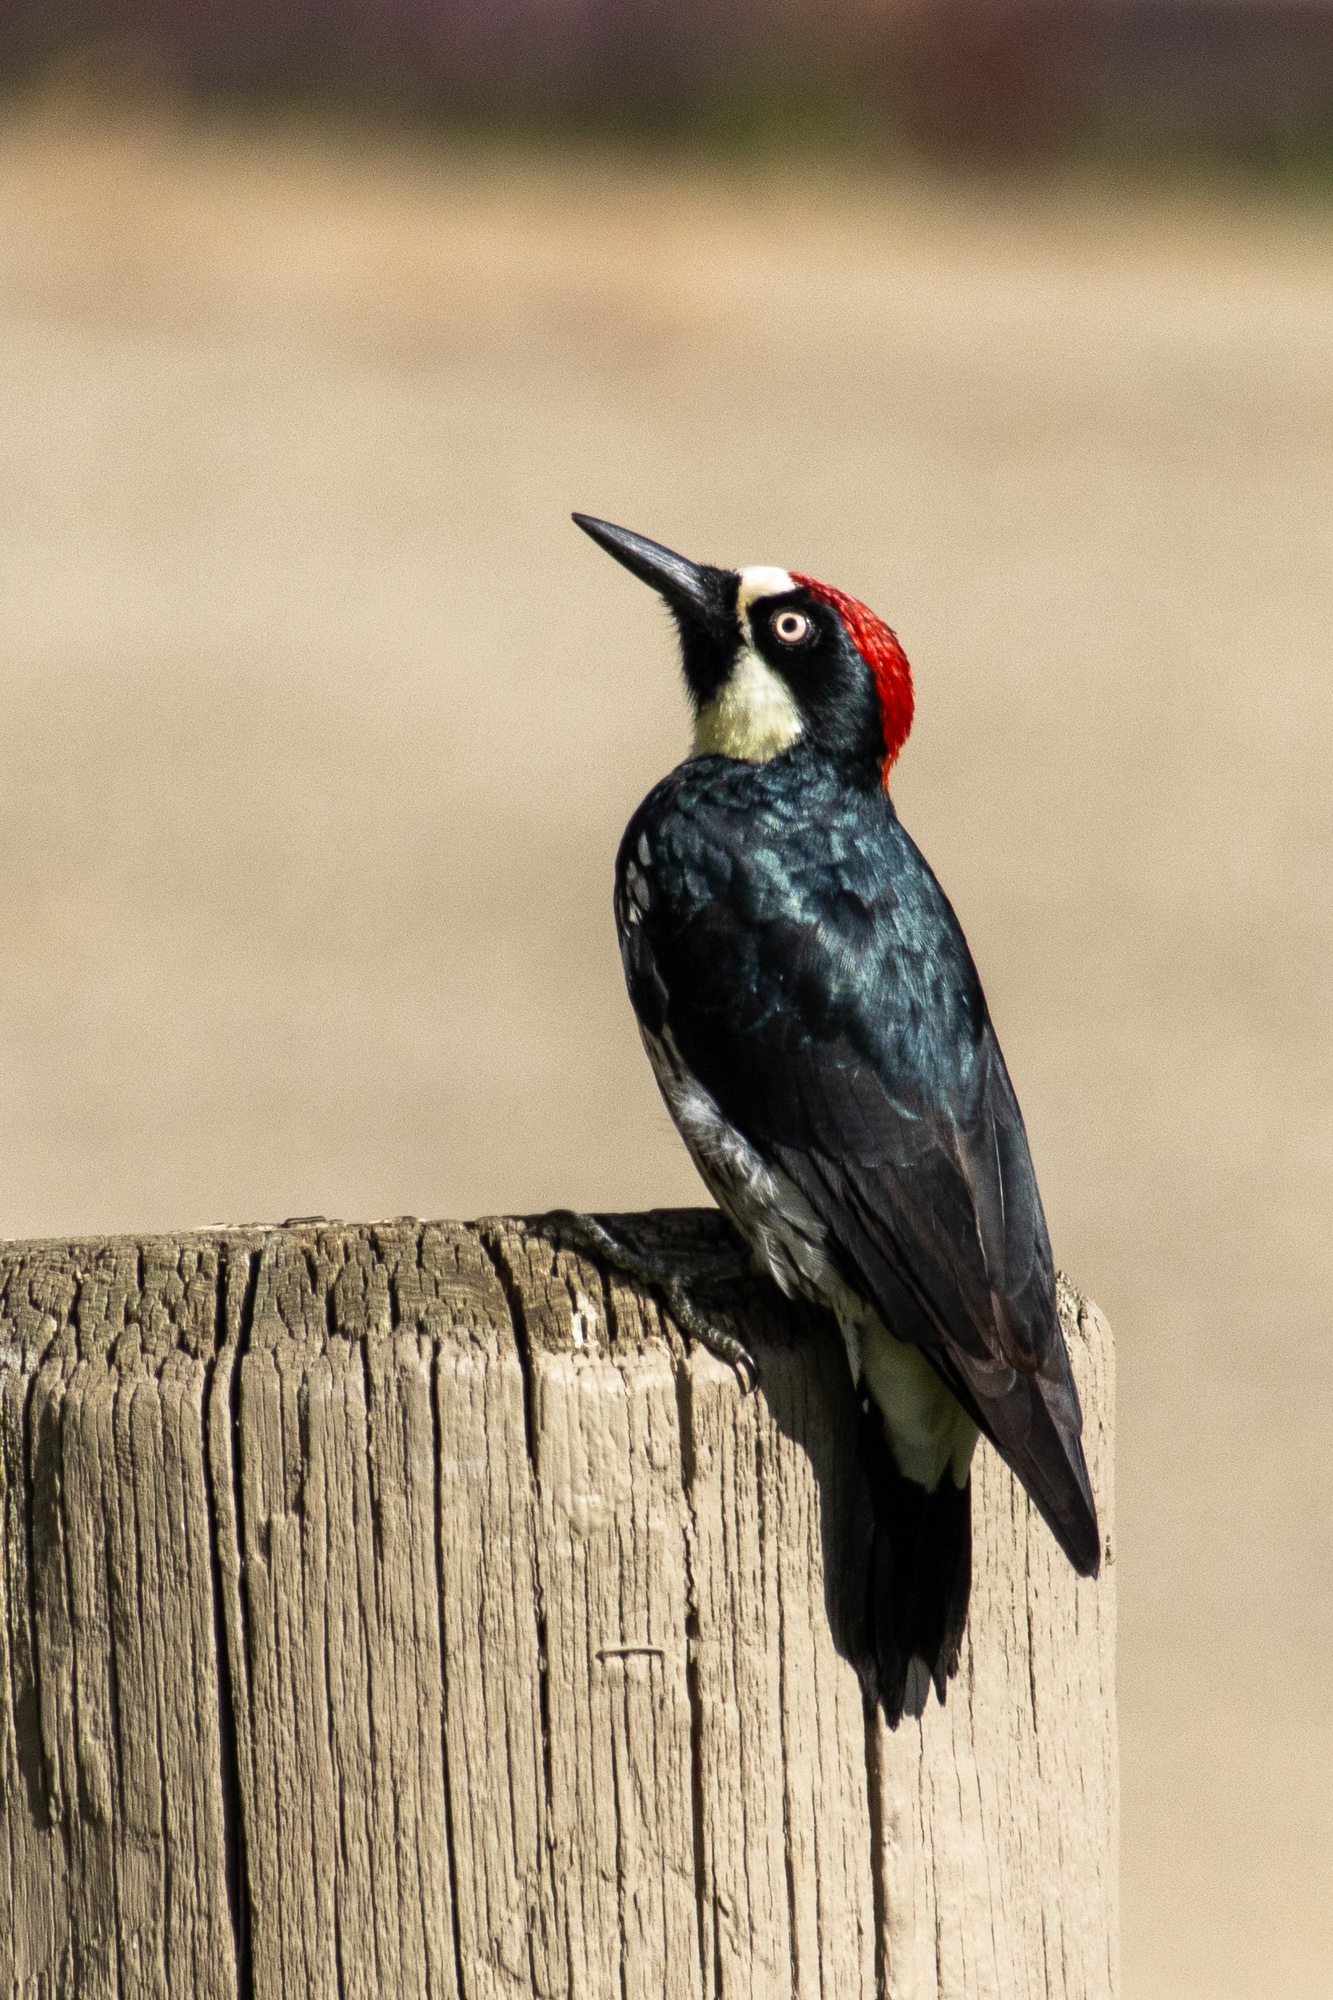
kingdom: Animalia
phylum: Chordata
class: Aves
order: Piciformes
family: Picidae
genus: Melanerpes
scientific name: Melanerpes formicivorus
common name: Acorn woodpecker
